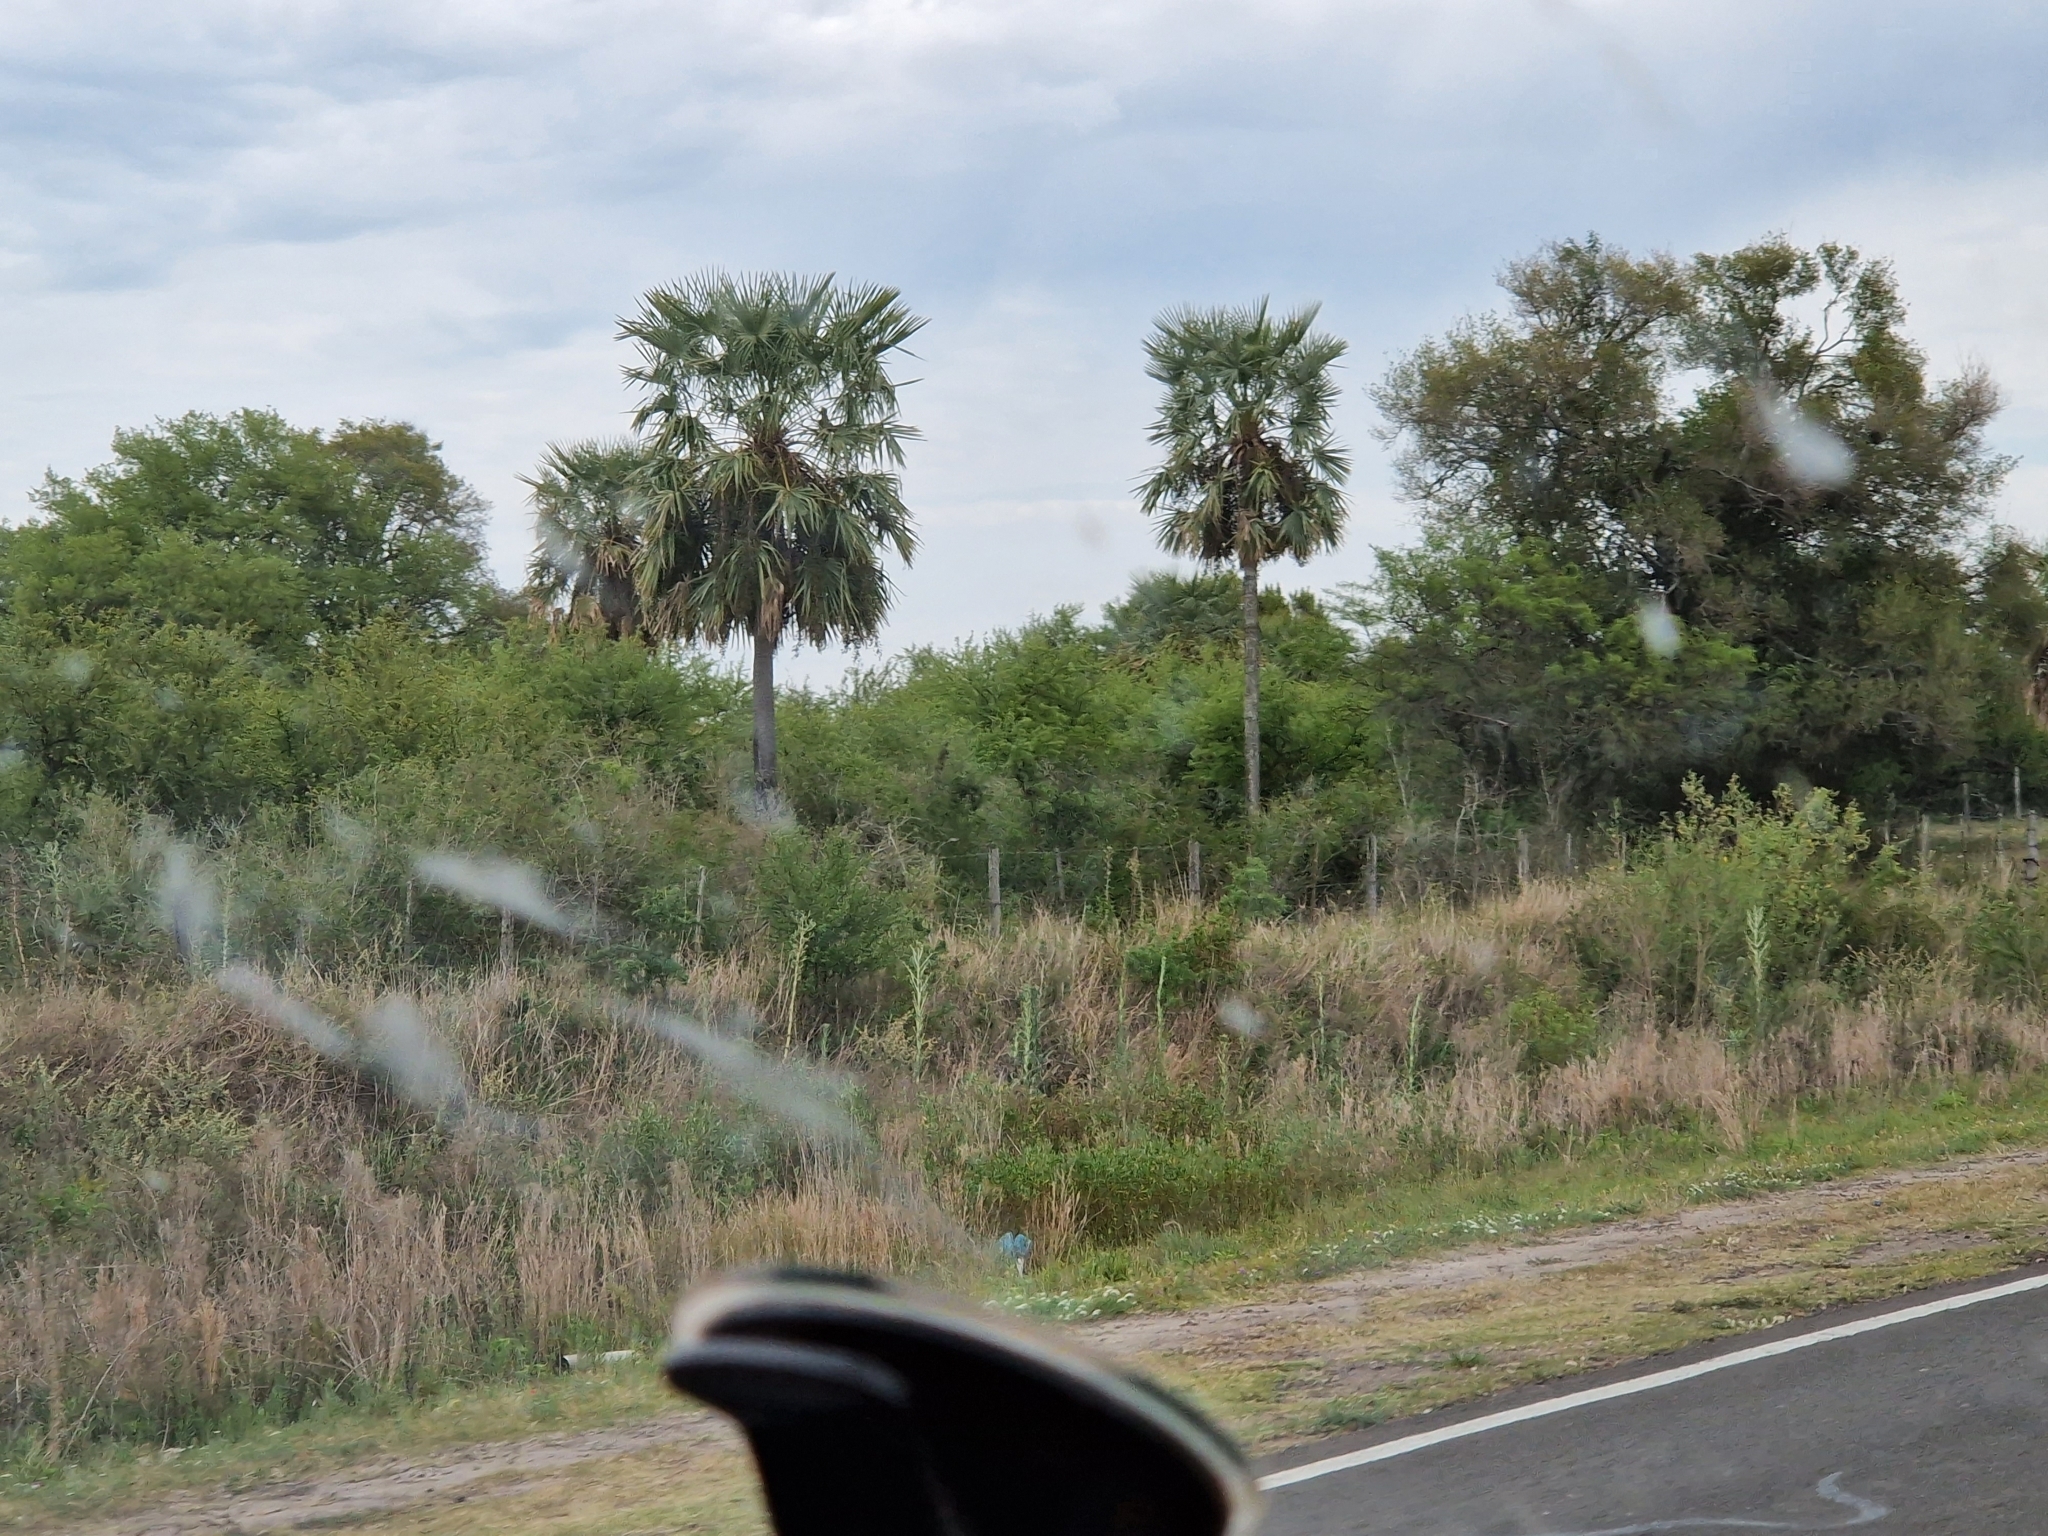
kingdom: Plantae
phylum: Tracheophyta
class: Liliopsida
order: Arecales
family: Arecaceae
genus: Copernicia
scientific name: Copernicia alba
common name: Caranday palm
